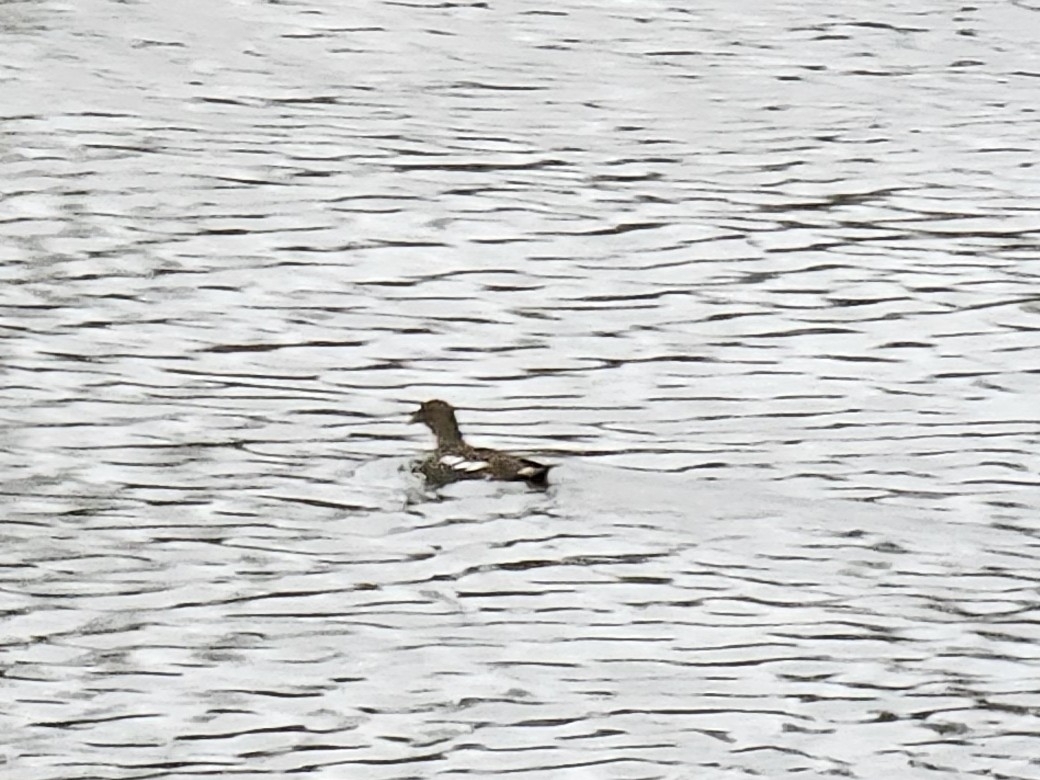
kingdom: Animalia
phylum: Chordata
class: Aves
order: Gruiformes
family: Rallidae
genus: Gallinula
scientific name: Gallinula chloropus
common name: Common moorhen
